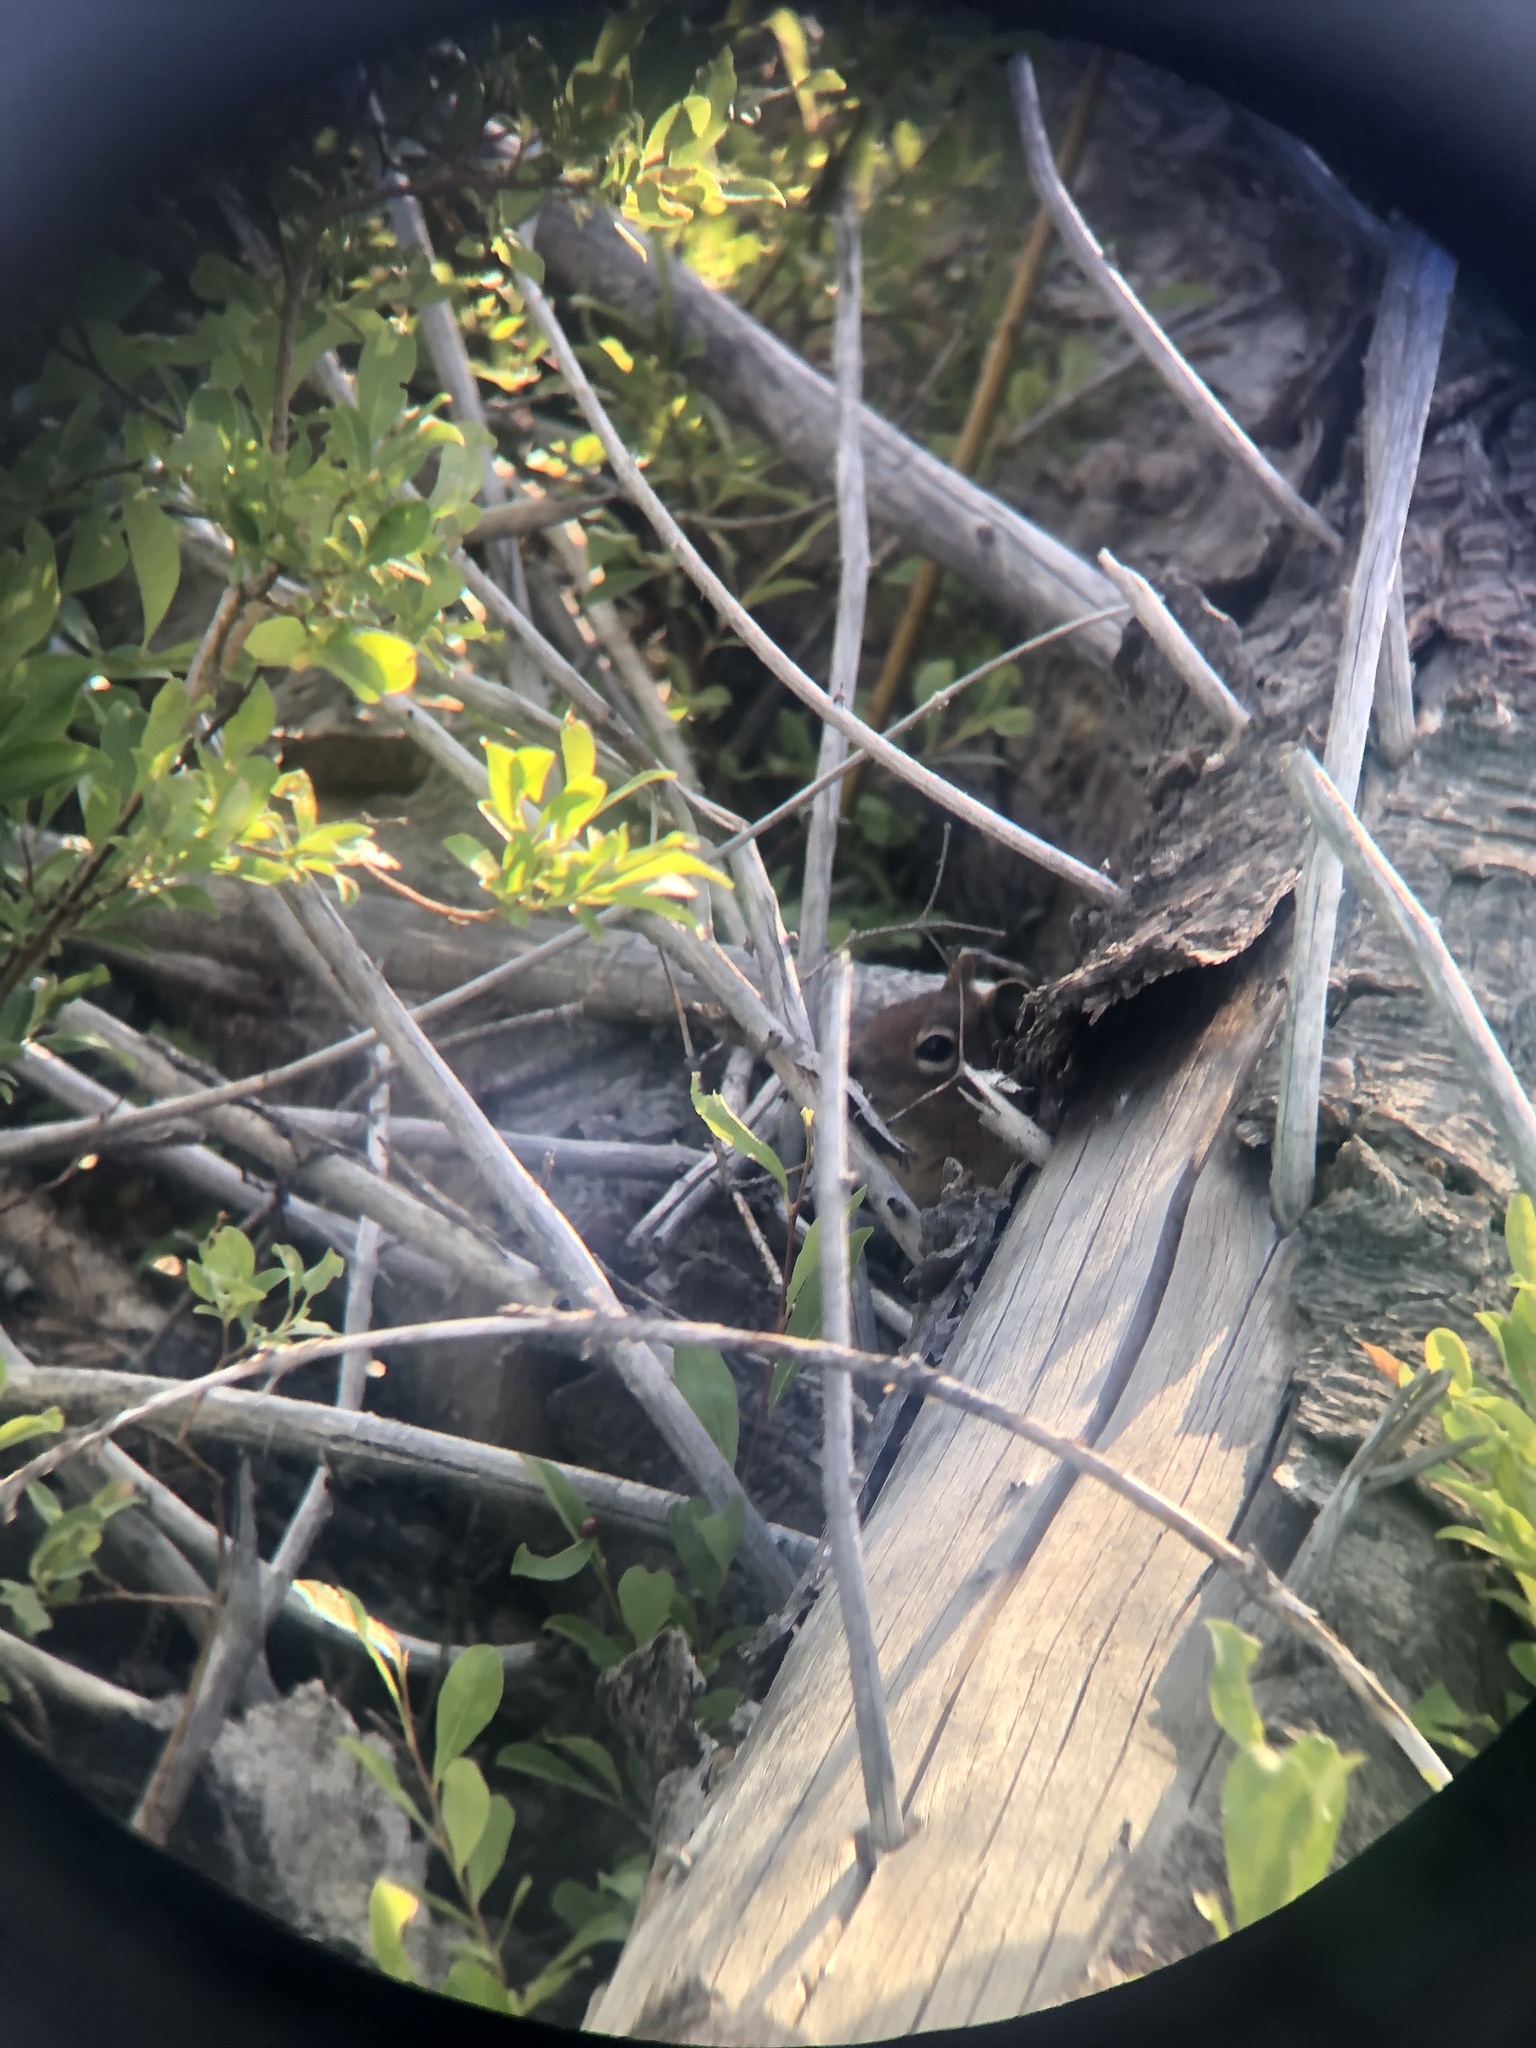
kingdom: Animalia
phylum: Chordata
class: Mammalia
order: Rodentia
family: Sciuridae
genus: Callospermophilus
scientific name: Callospermophilus saturatus
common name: Cascade golden-mantled ground squirrel
